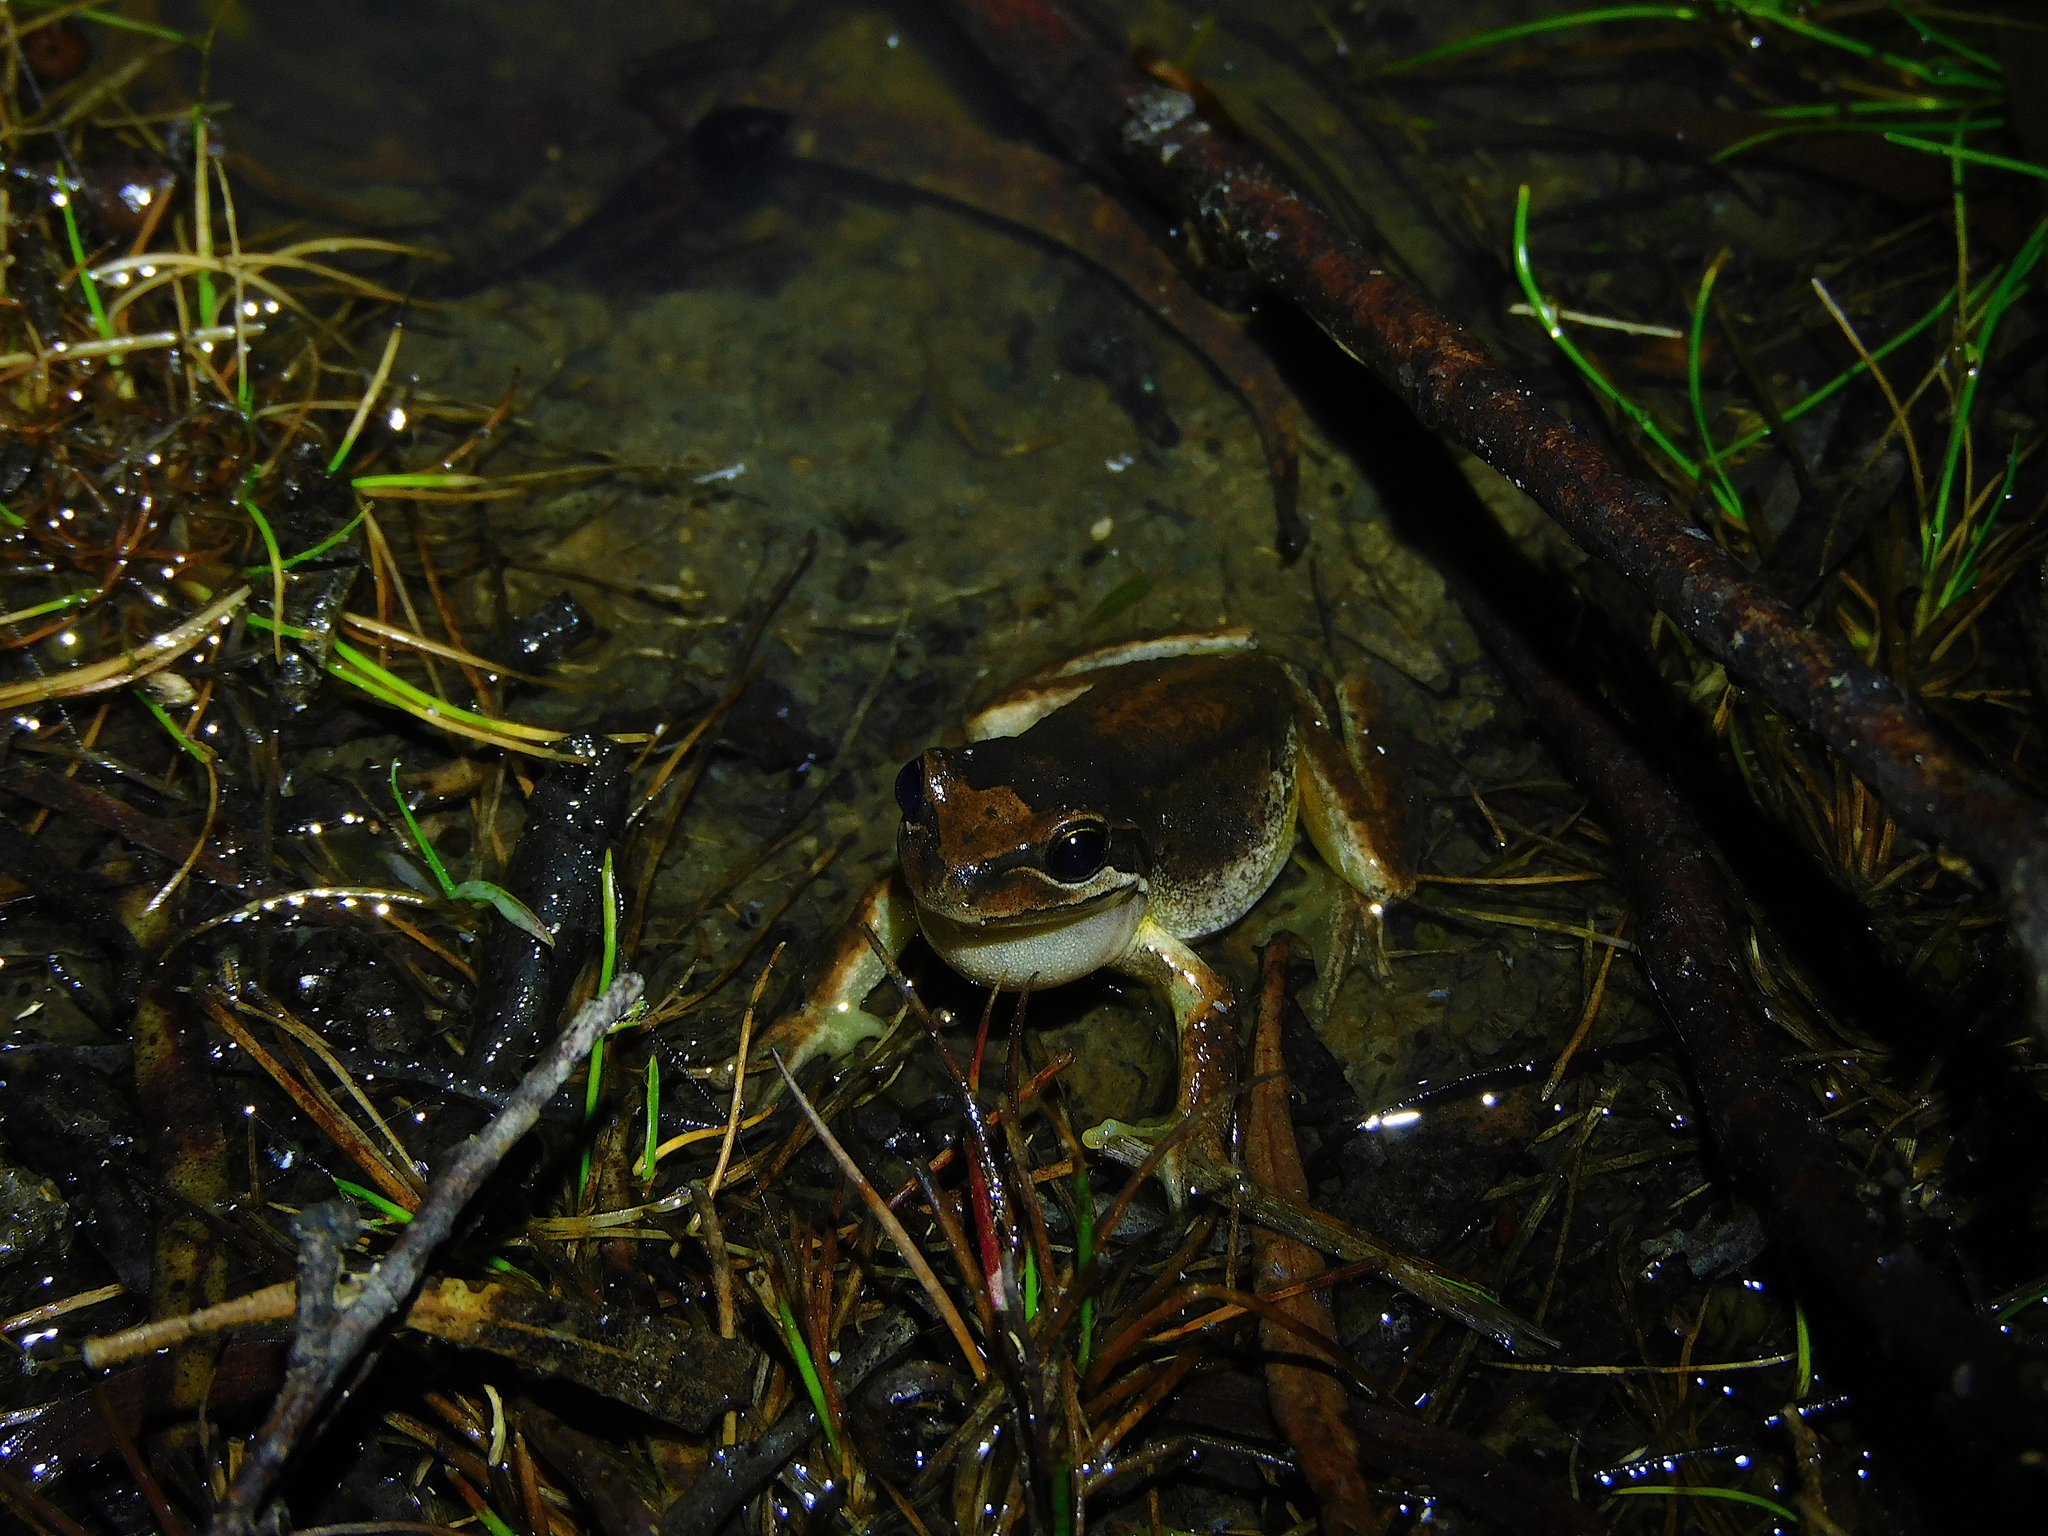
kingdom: Animalia
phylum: Chordata
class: Amphibia
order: Anura
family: Pelodryadidae
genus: Litoria
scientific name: Litoria ewingii
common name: Southern brown tree frog
